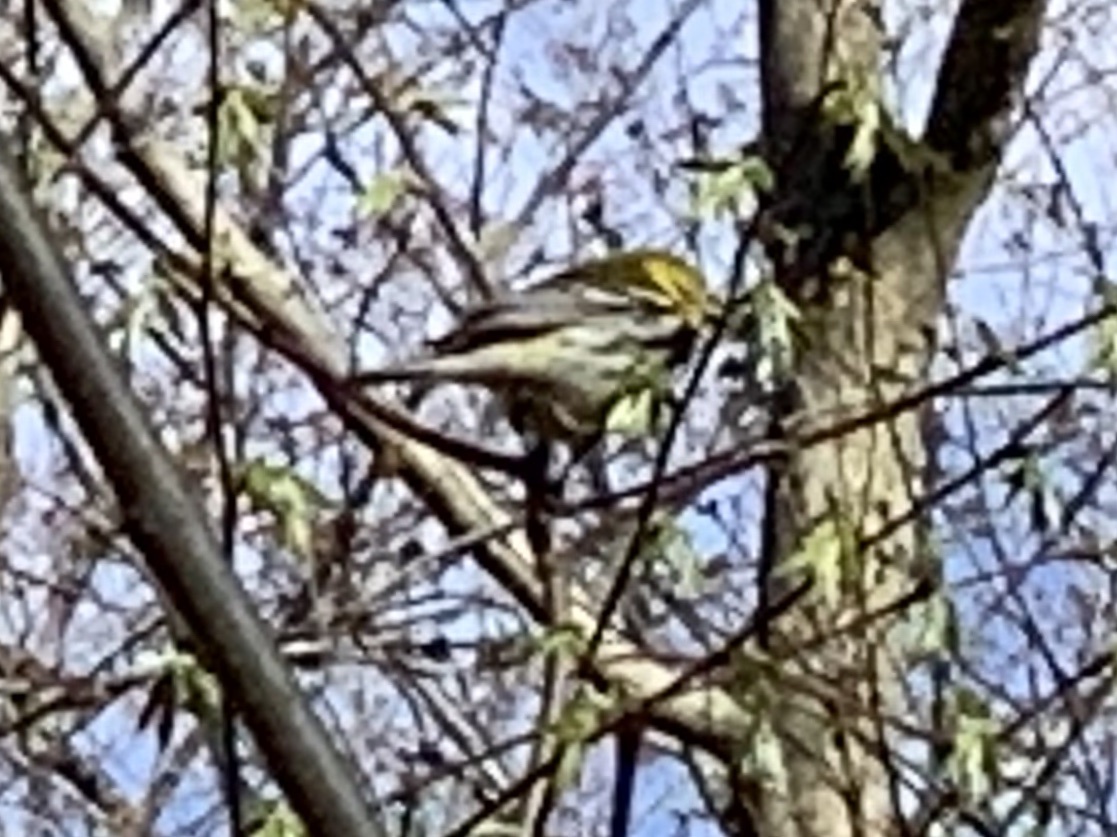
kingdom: Animalia
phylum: Chordata
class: Aves
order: Passeriformes
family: Parulidae
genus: Setophaga
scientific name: Setophaga virens
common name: Black-throated green warbler
